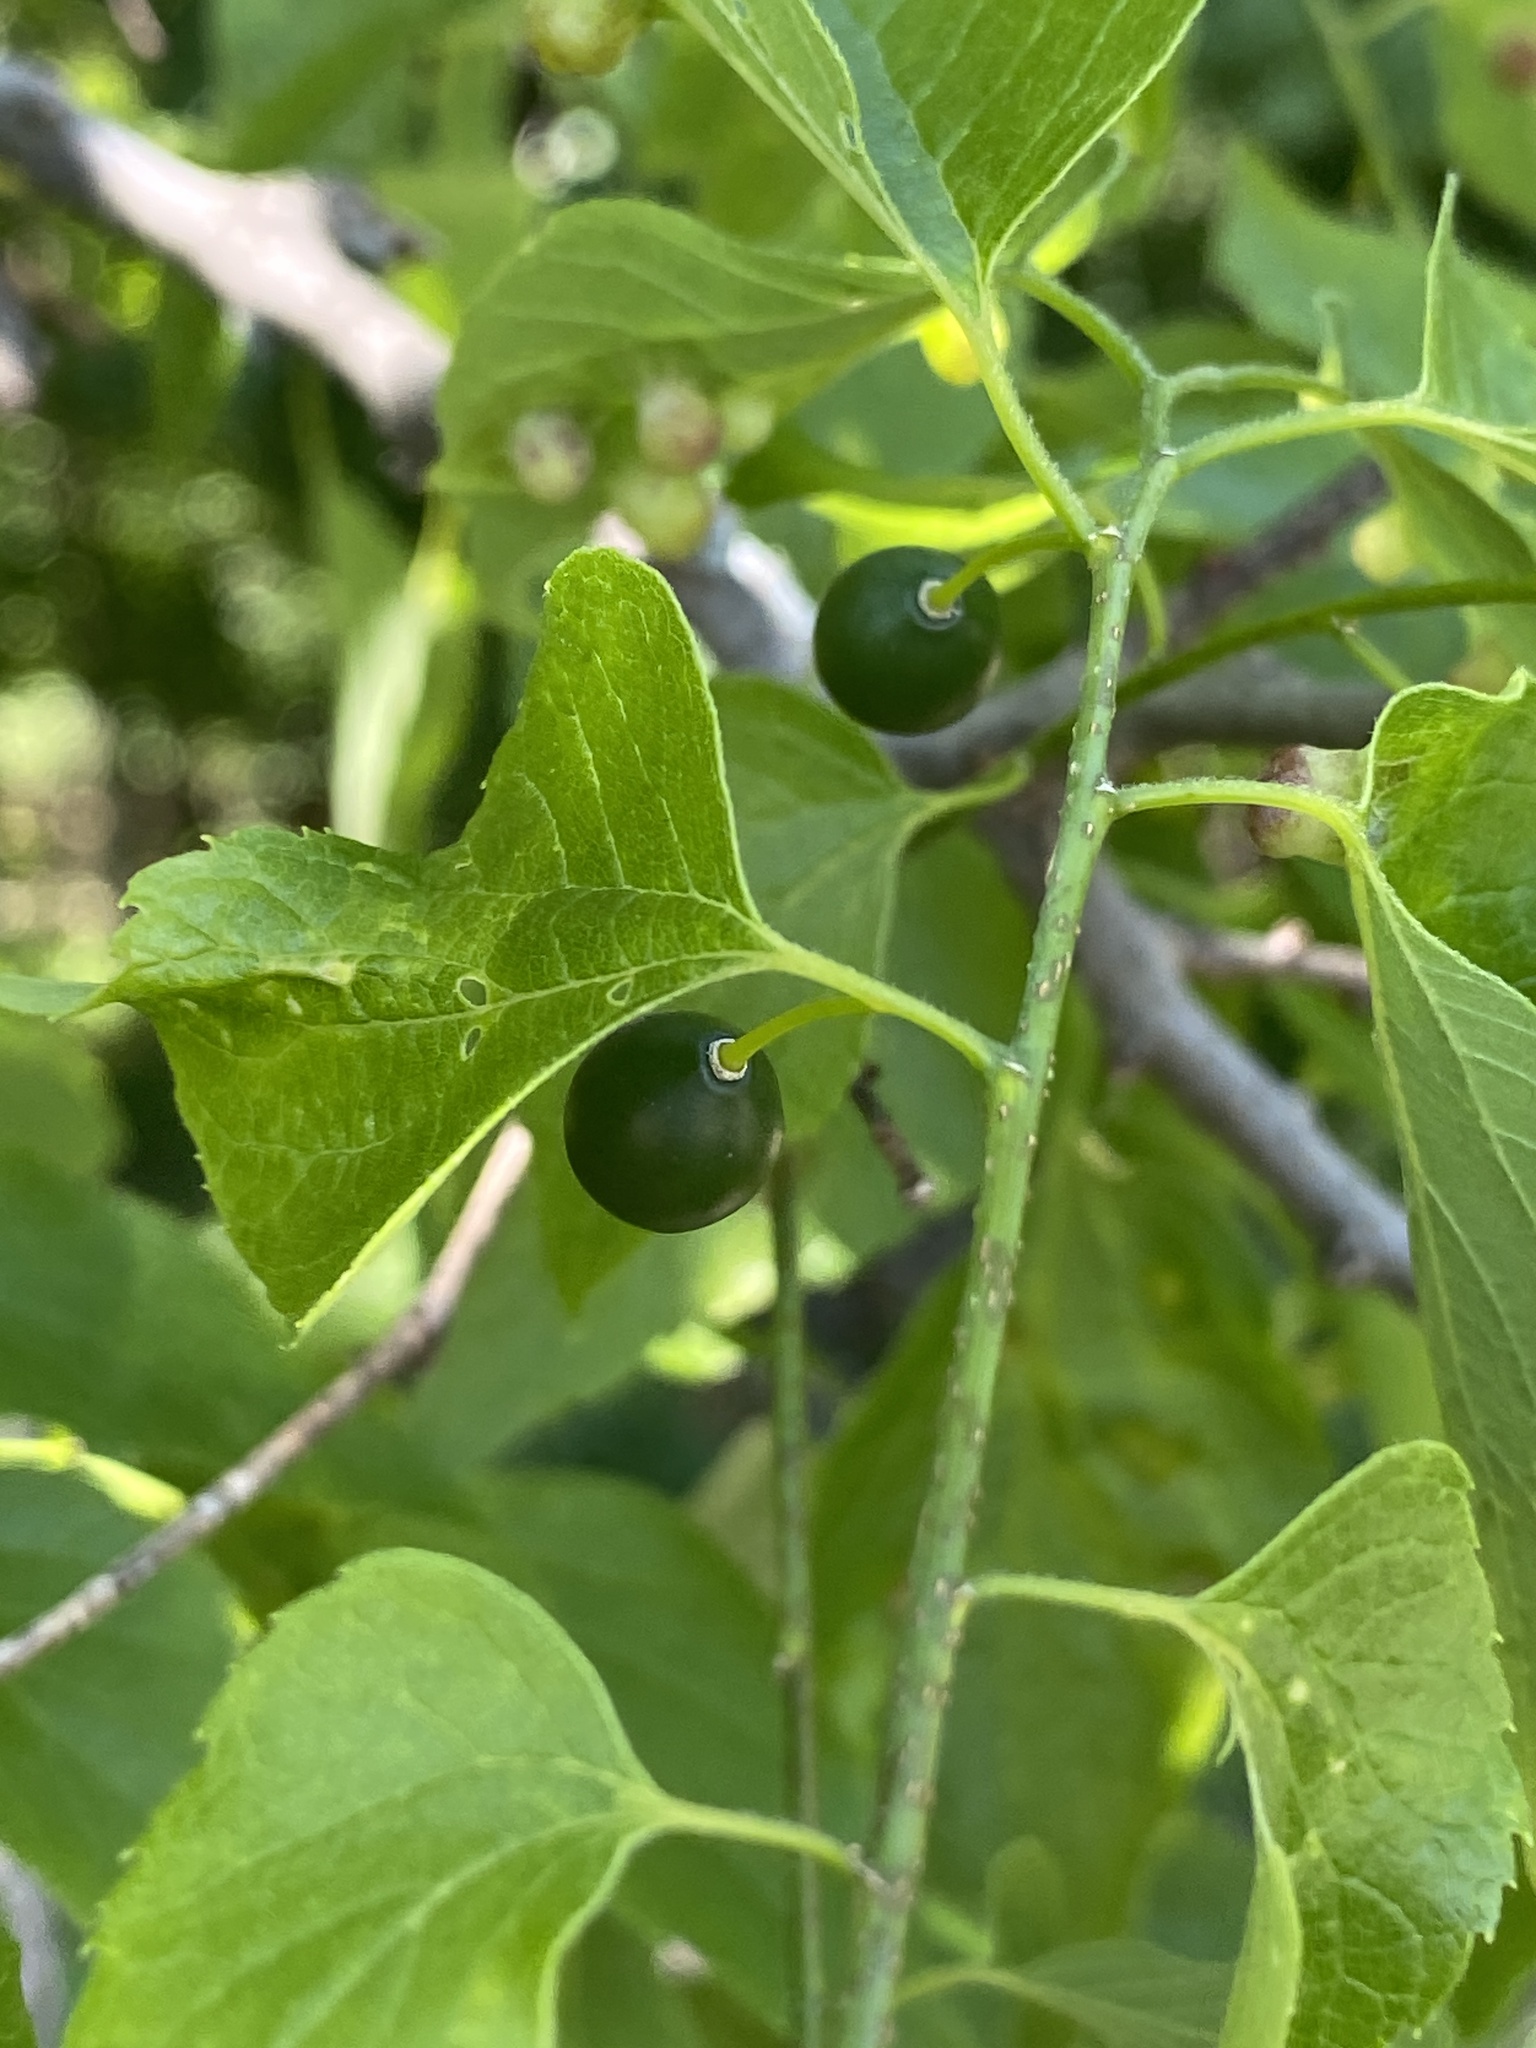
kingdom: Plantae
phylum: Tracheophyta
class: Magnoliopsida
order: Rosales
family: Cannabaceae
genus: Celtis
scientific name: Celtis occidentalis
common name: Common hackberry
